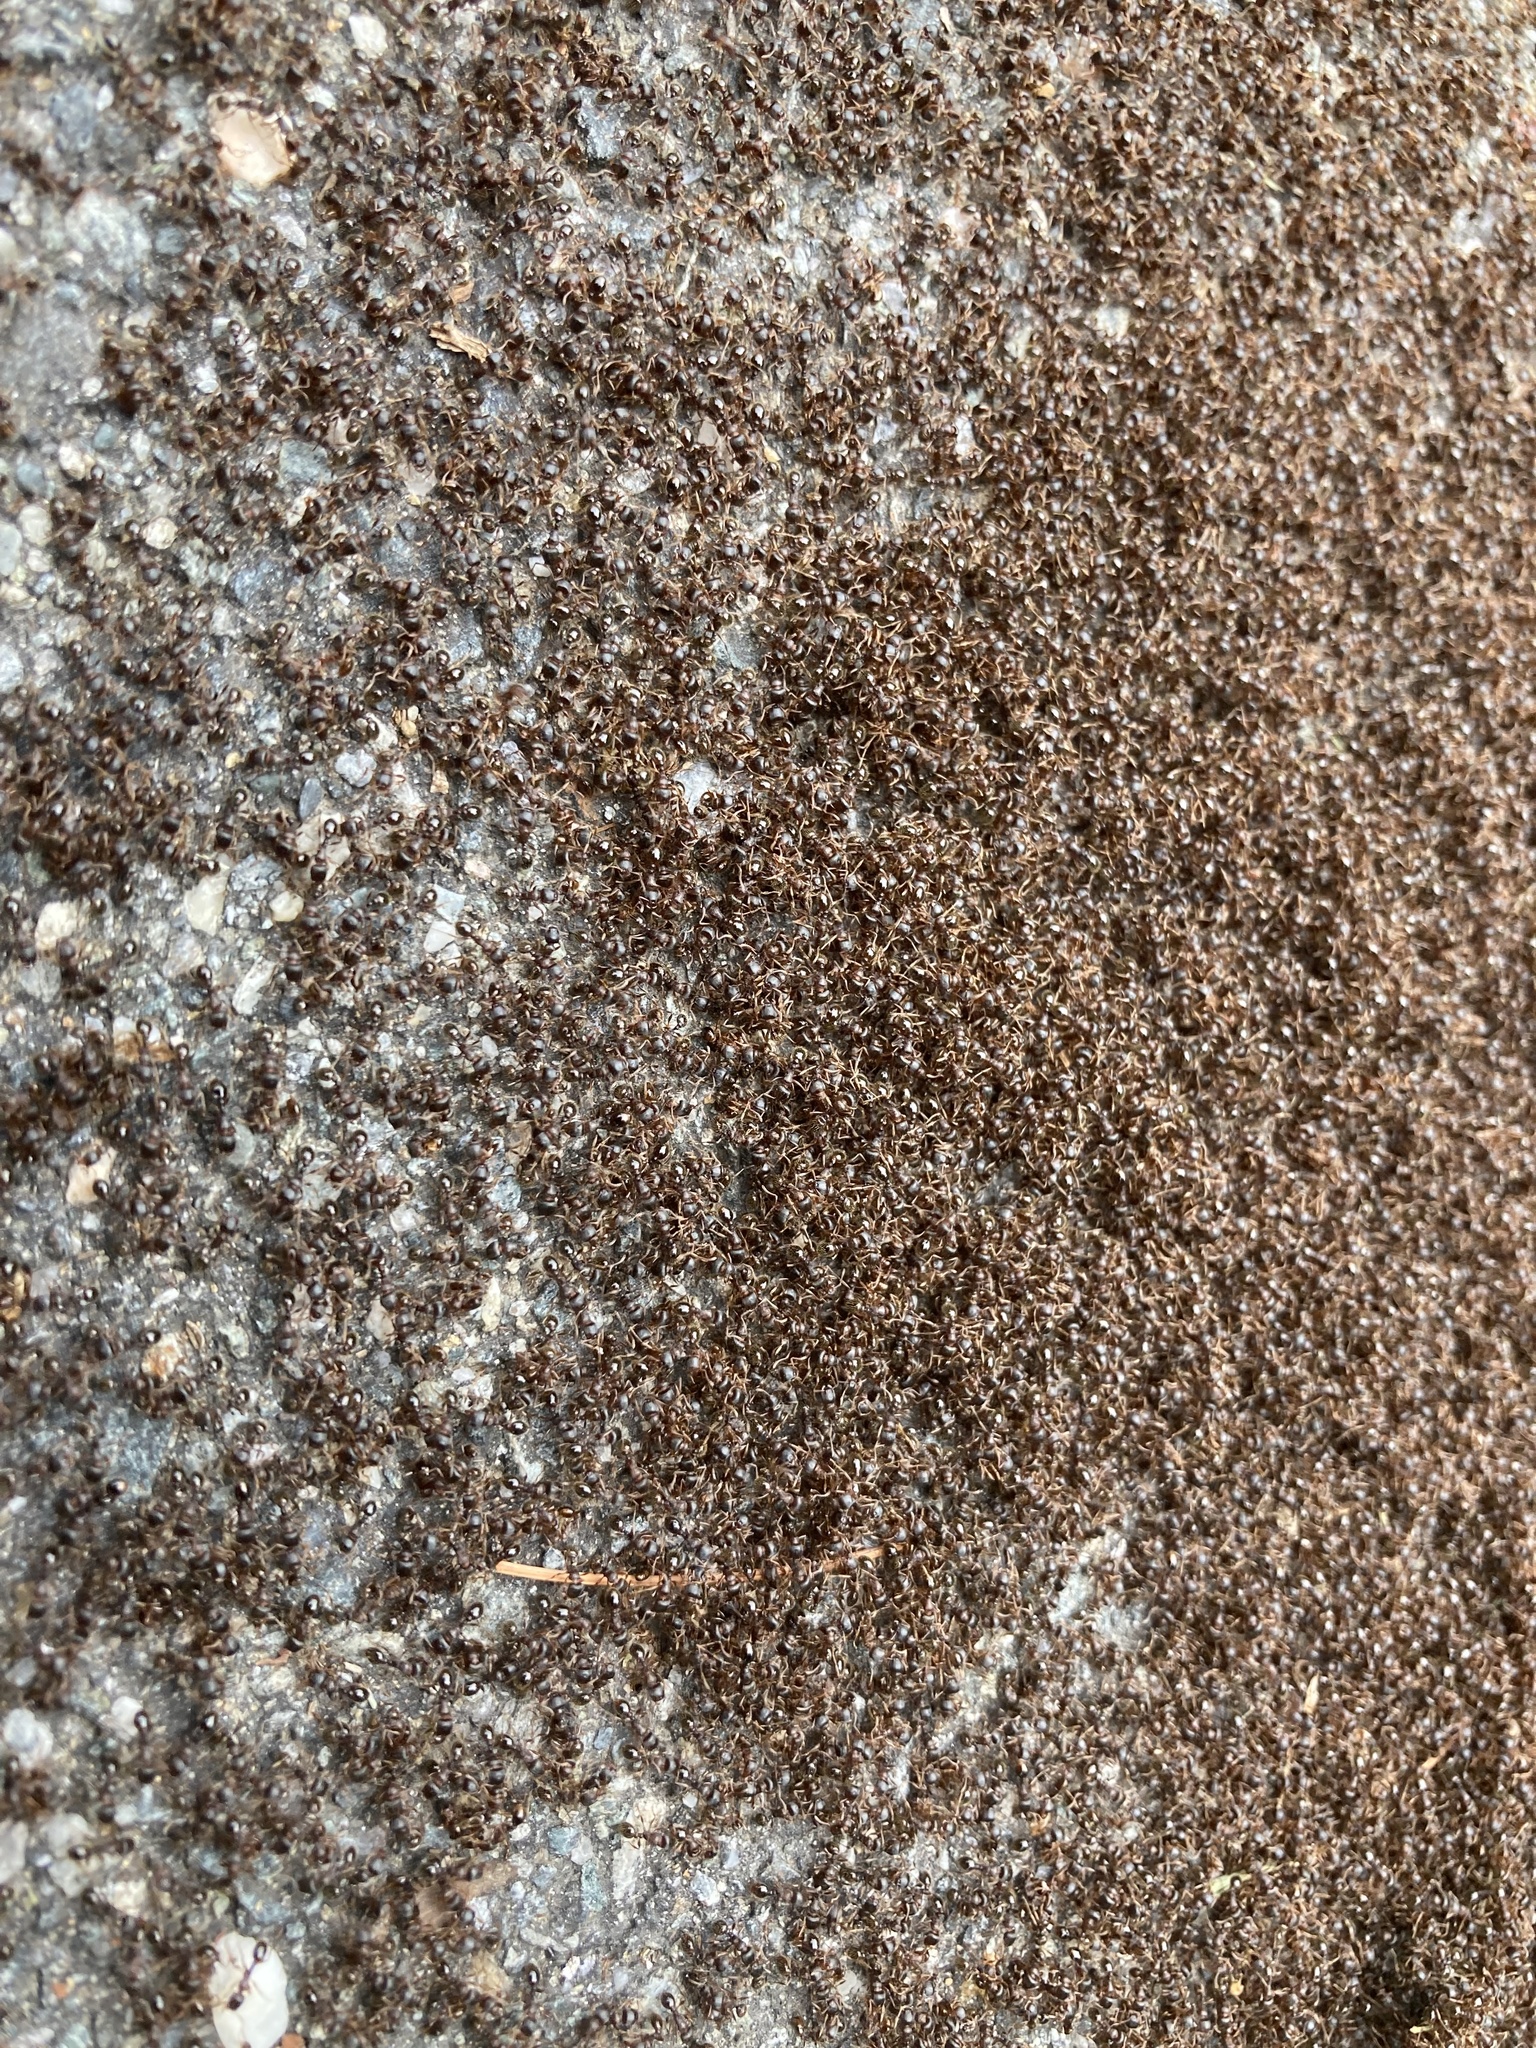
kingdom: Animalia
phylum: Arthropoda
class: Insecta
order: Hymenoptera
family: Formicidae
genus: Tetramorium
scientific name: Tetramorium immigrans
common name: Pavement ant
